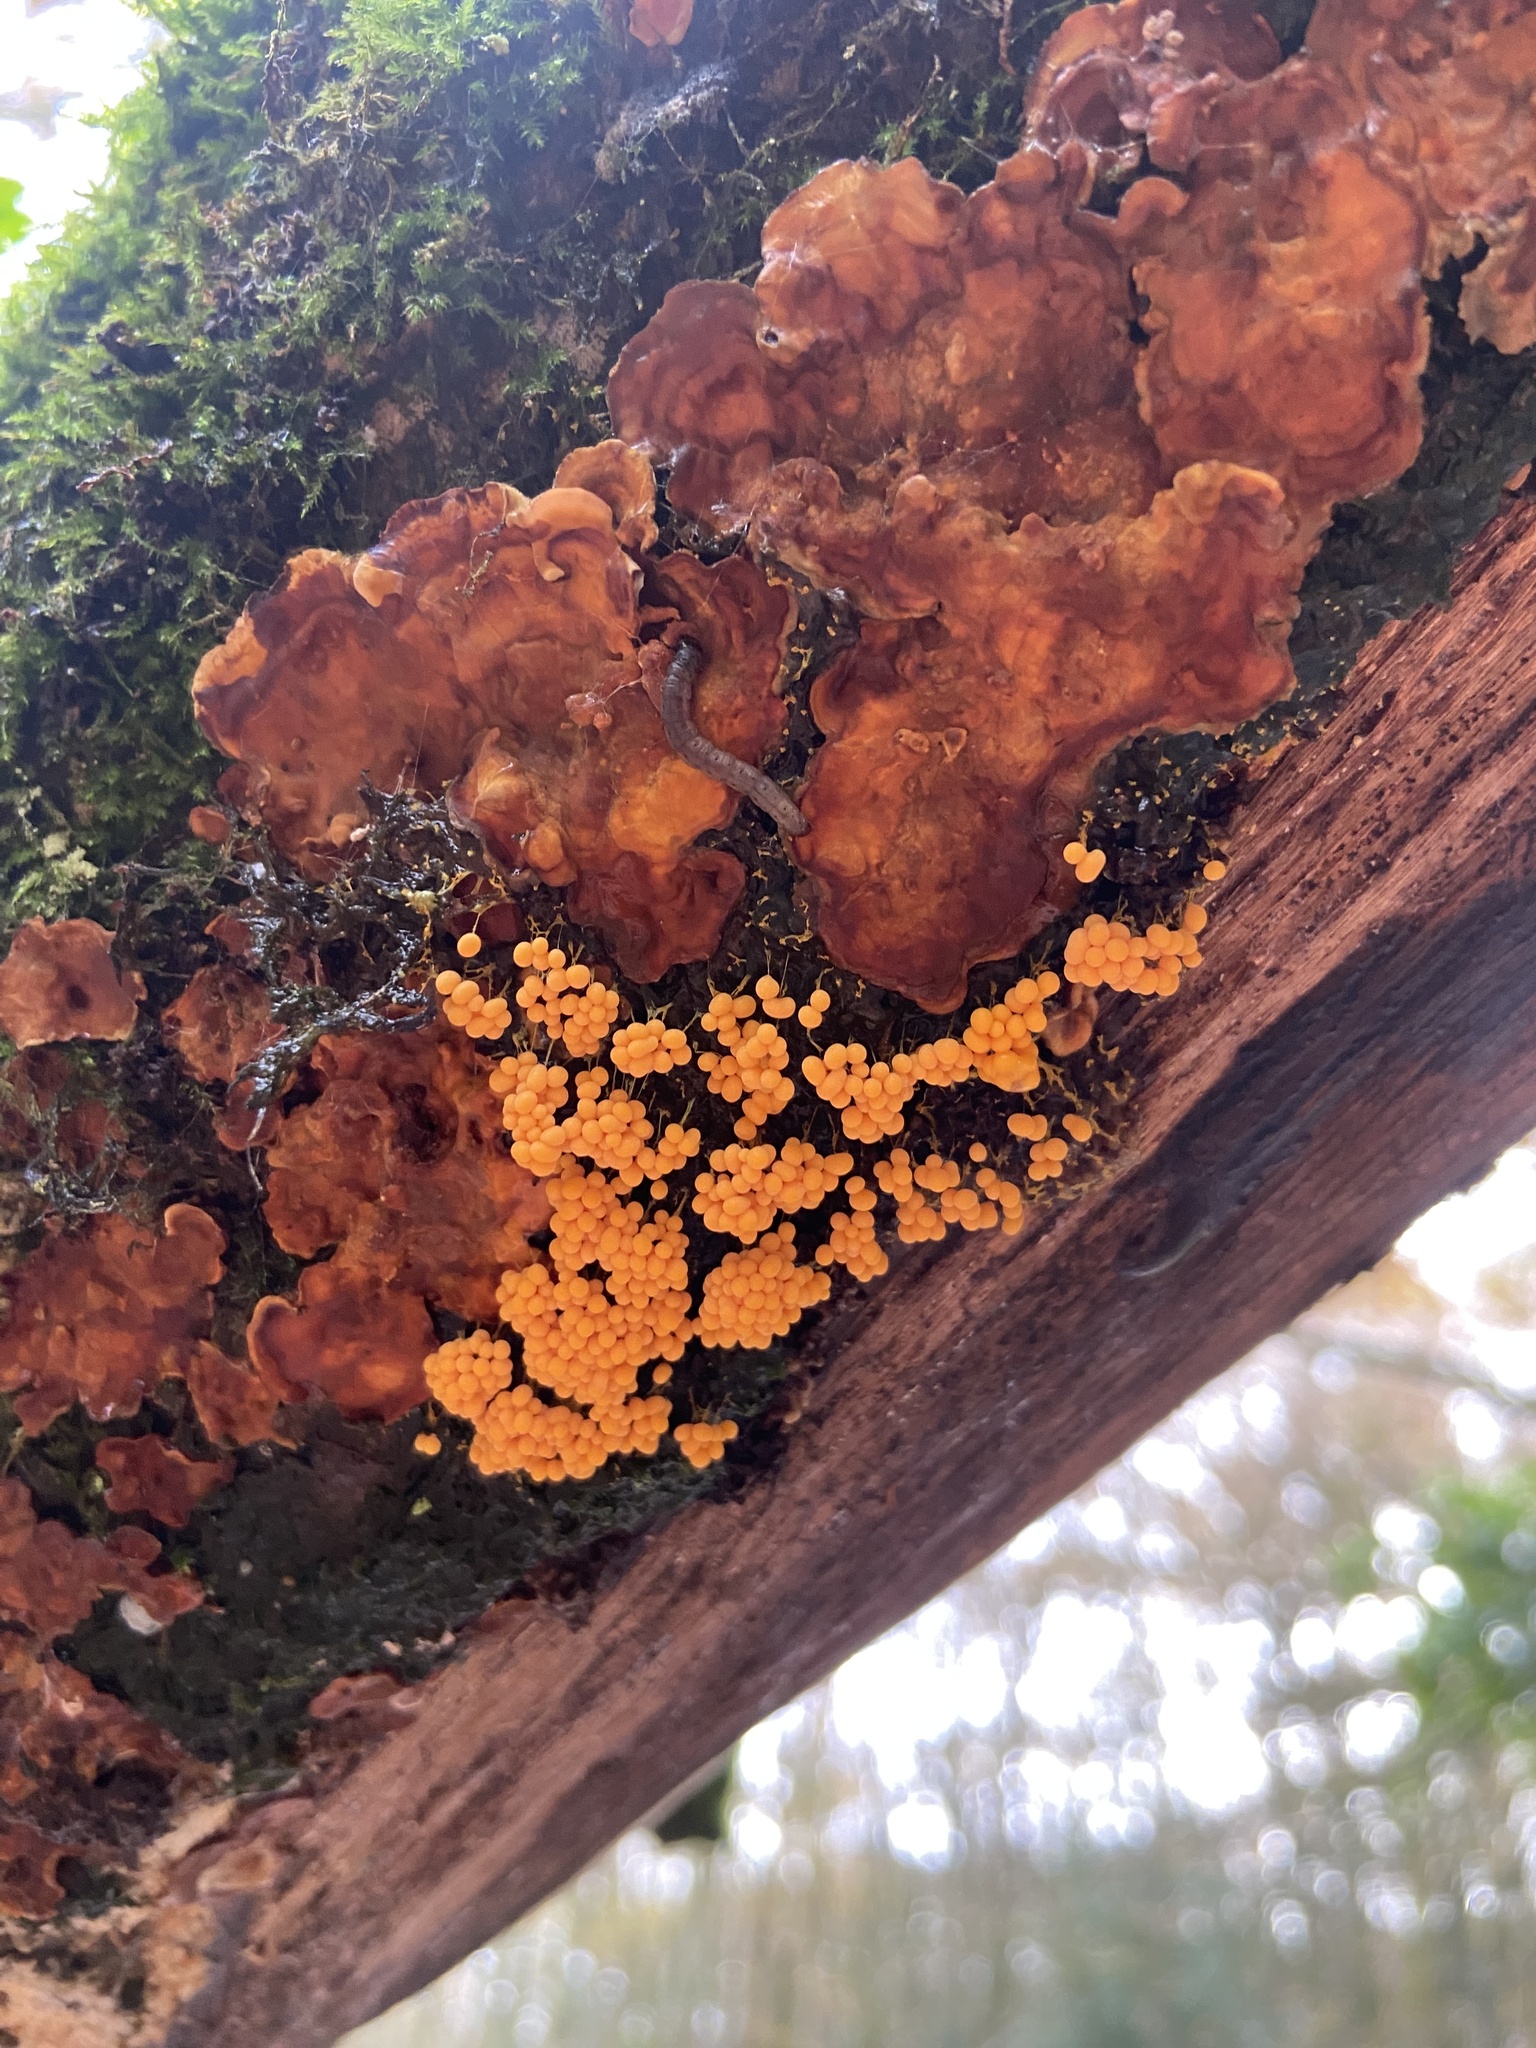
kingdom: Protozoa
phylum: Mycetozoa
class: Myxomycetes
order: Physarales
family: Physaraceae
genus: Badhamia
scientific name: Badhamia utricularis
